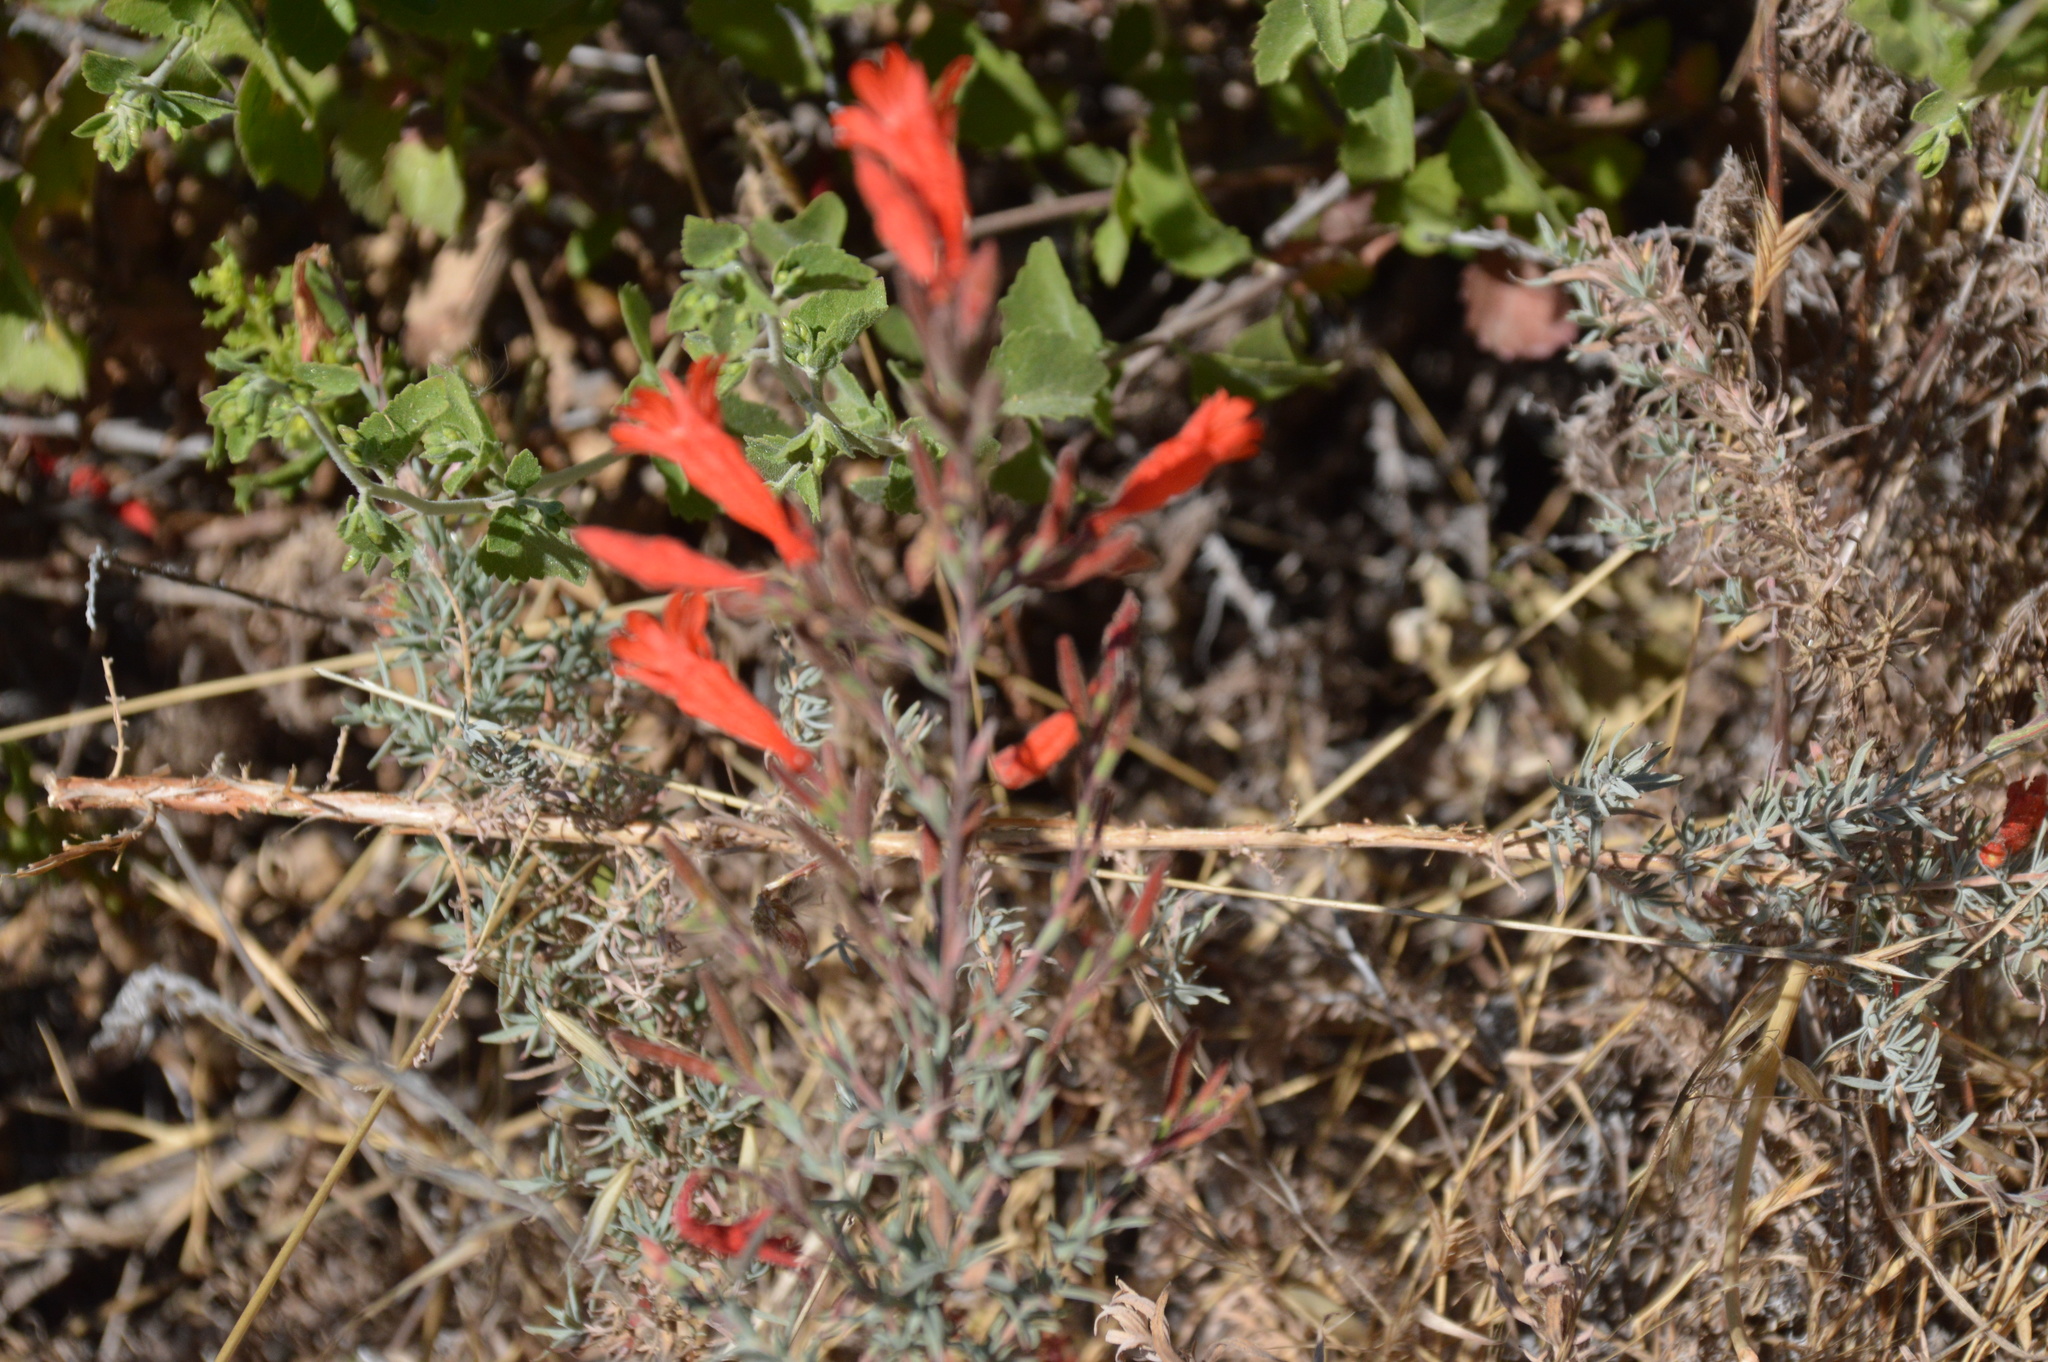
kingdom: Plantae
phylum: Tracheophyta
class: Magnoliopsida
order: Myrtales
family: Onagraceae
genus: Epilobium
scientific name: Epilobium canum
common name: California-fuchsia
